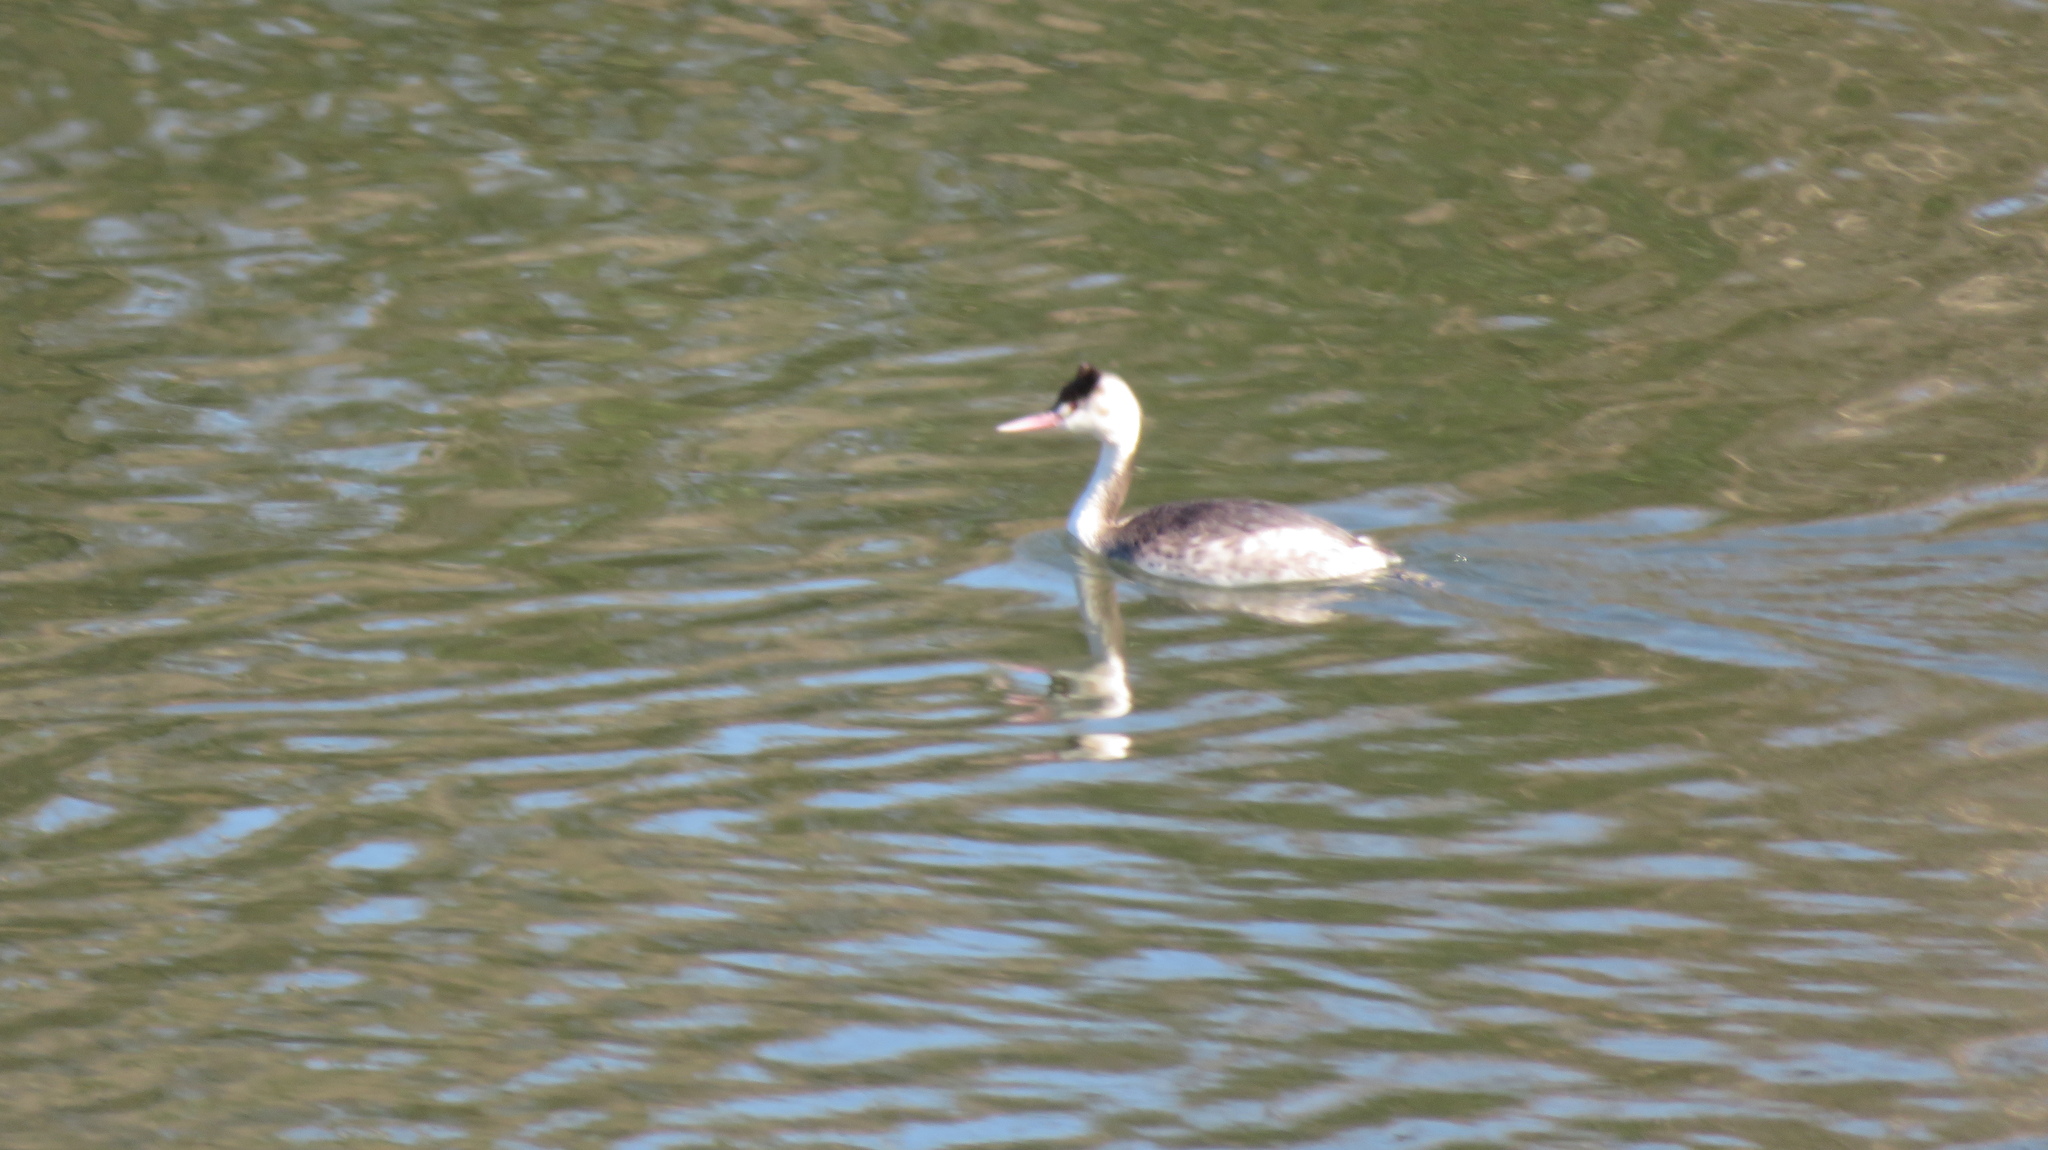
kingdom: Animalia
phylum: Chordata
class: Aves
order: Podicipediformes
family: Podicipedidae
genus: Podiceps
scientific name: Podiceps cristatus
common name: Great crested grebe
